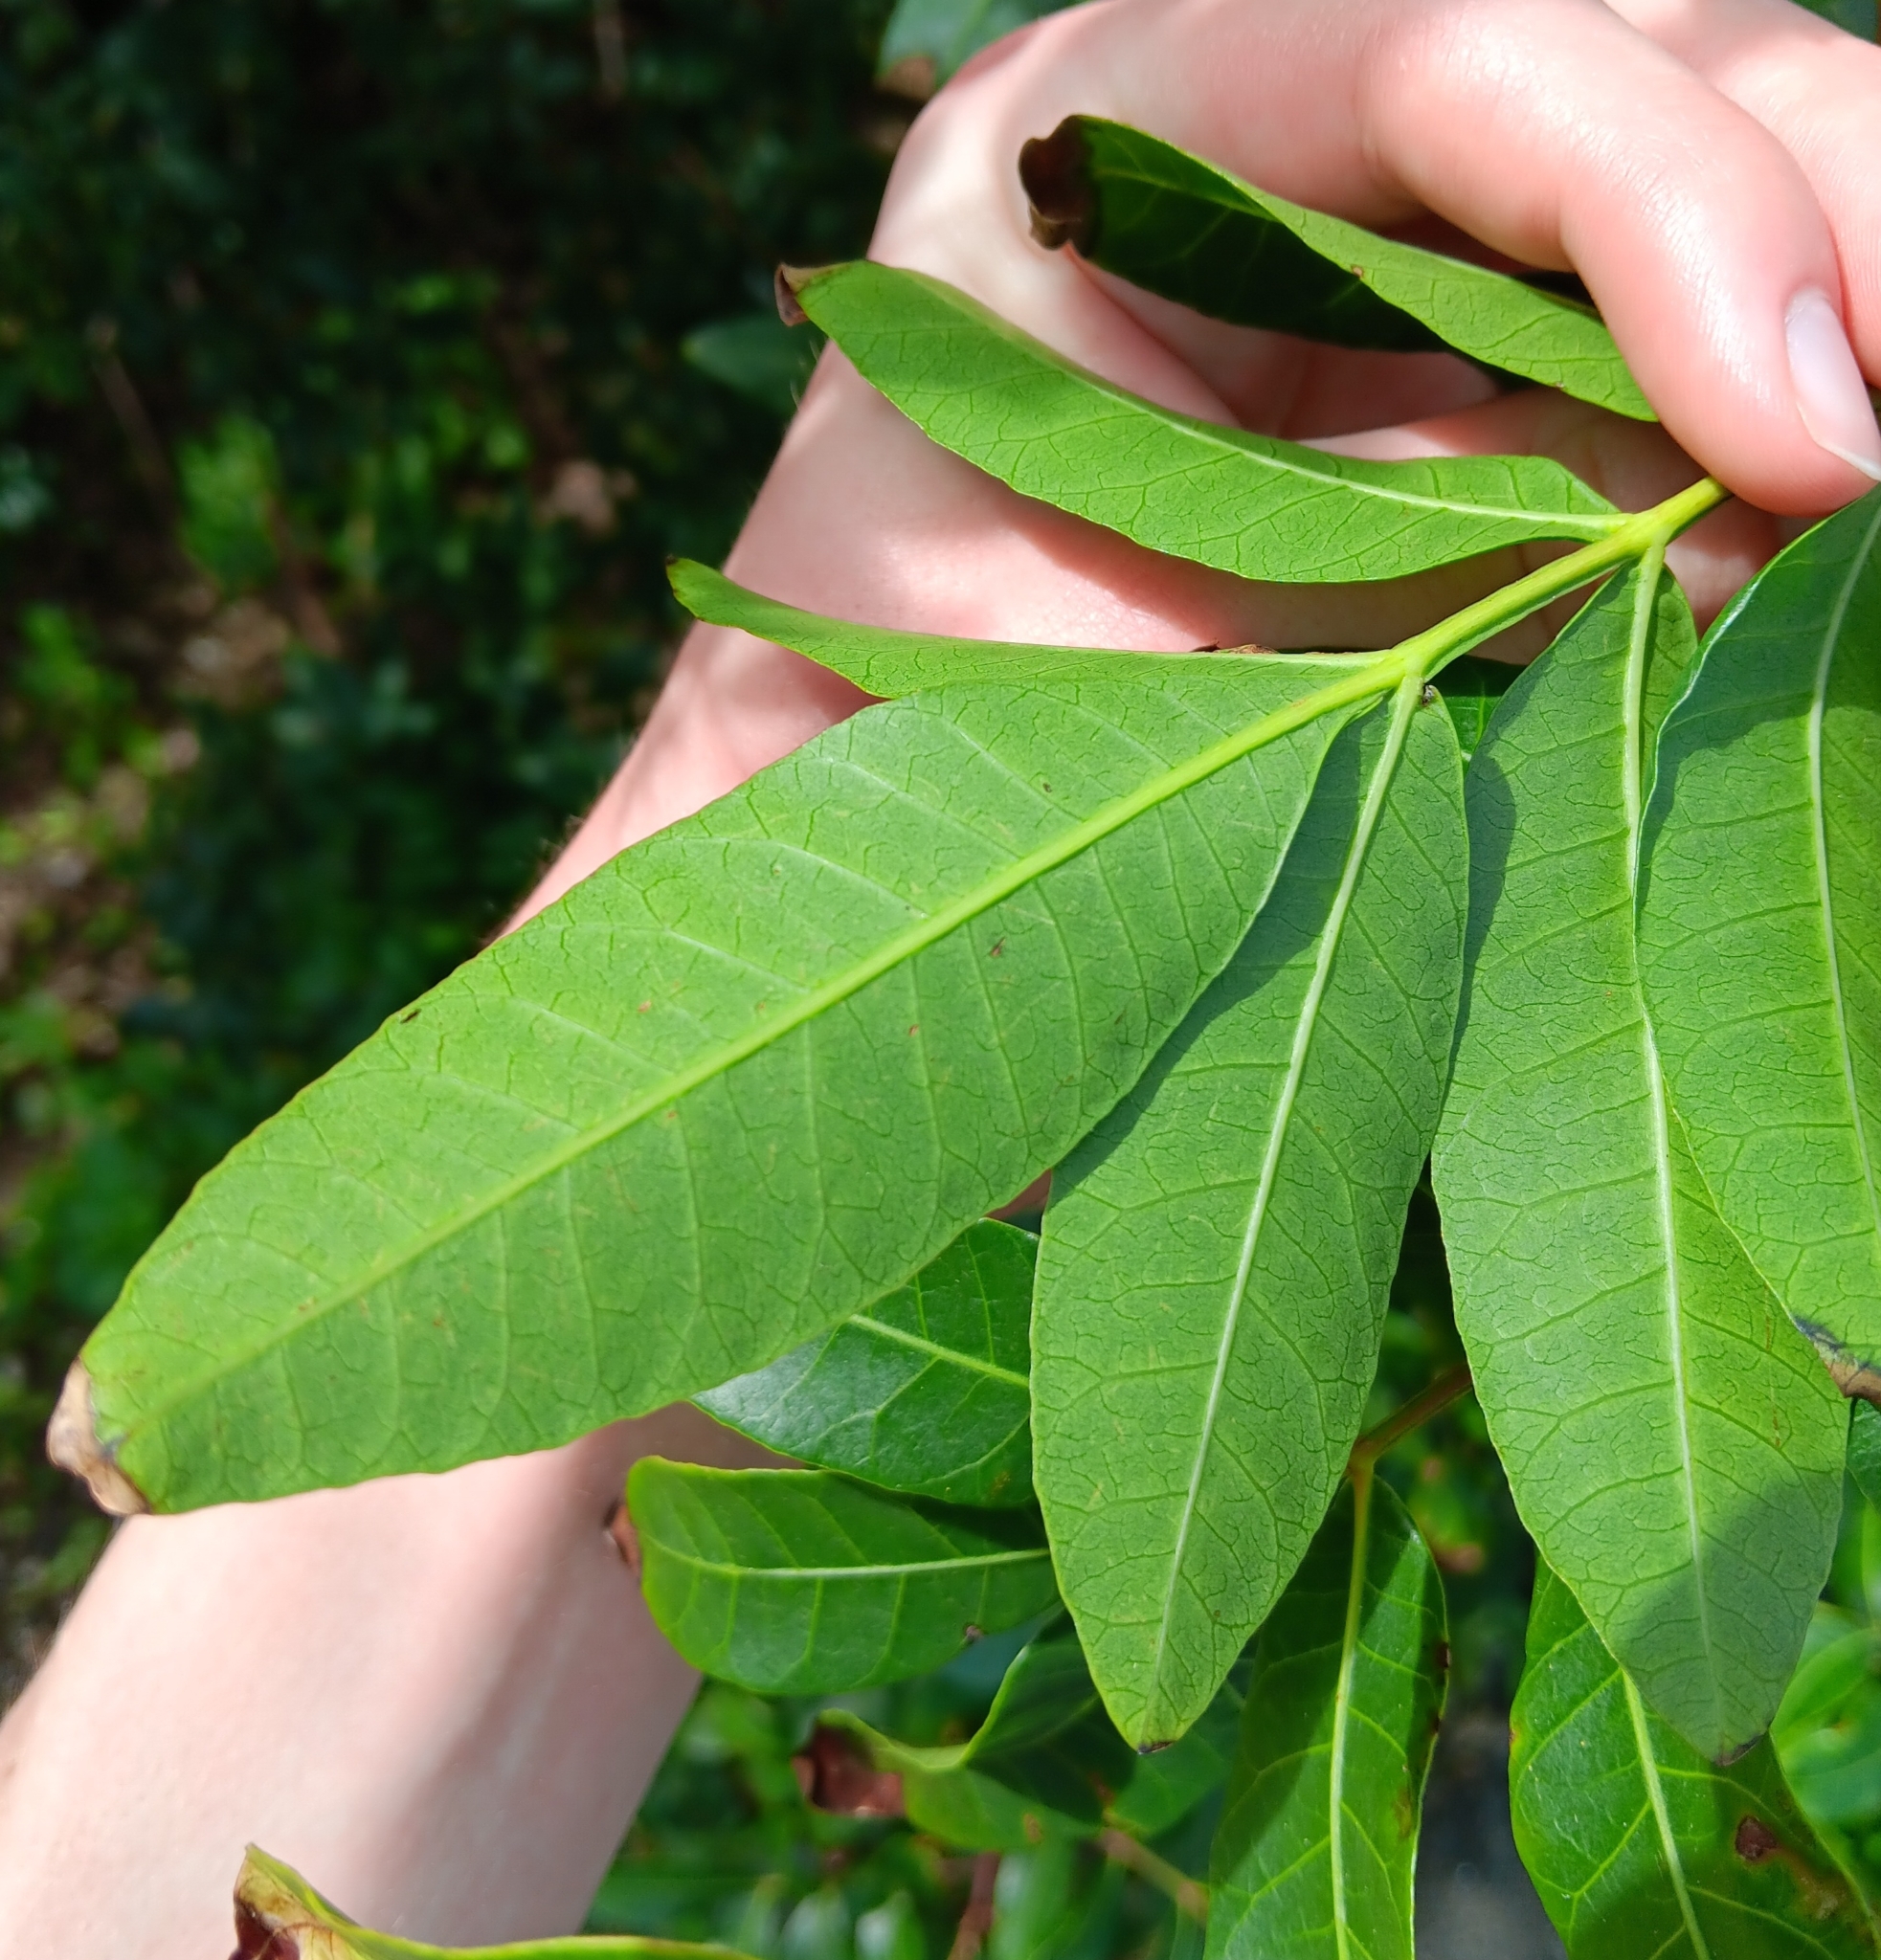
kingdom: Plantae
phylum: Tracheophyta
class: Magnoliopsida
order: Sapindales
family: Anacardiaceae
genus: Schinus
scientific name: Schinus terebinthifolia
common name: Brazilian peppertree
